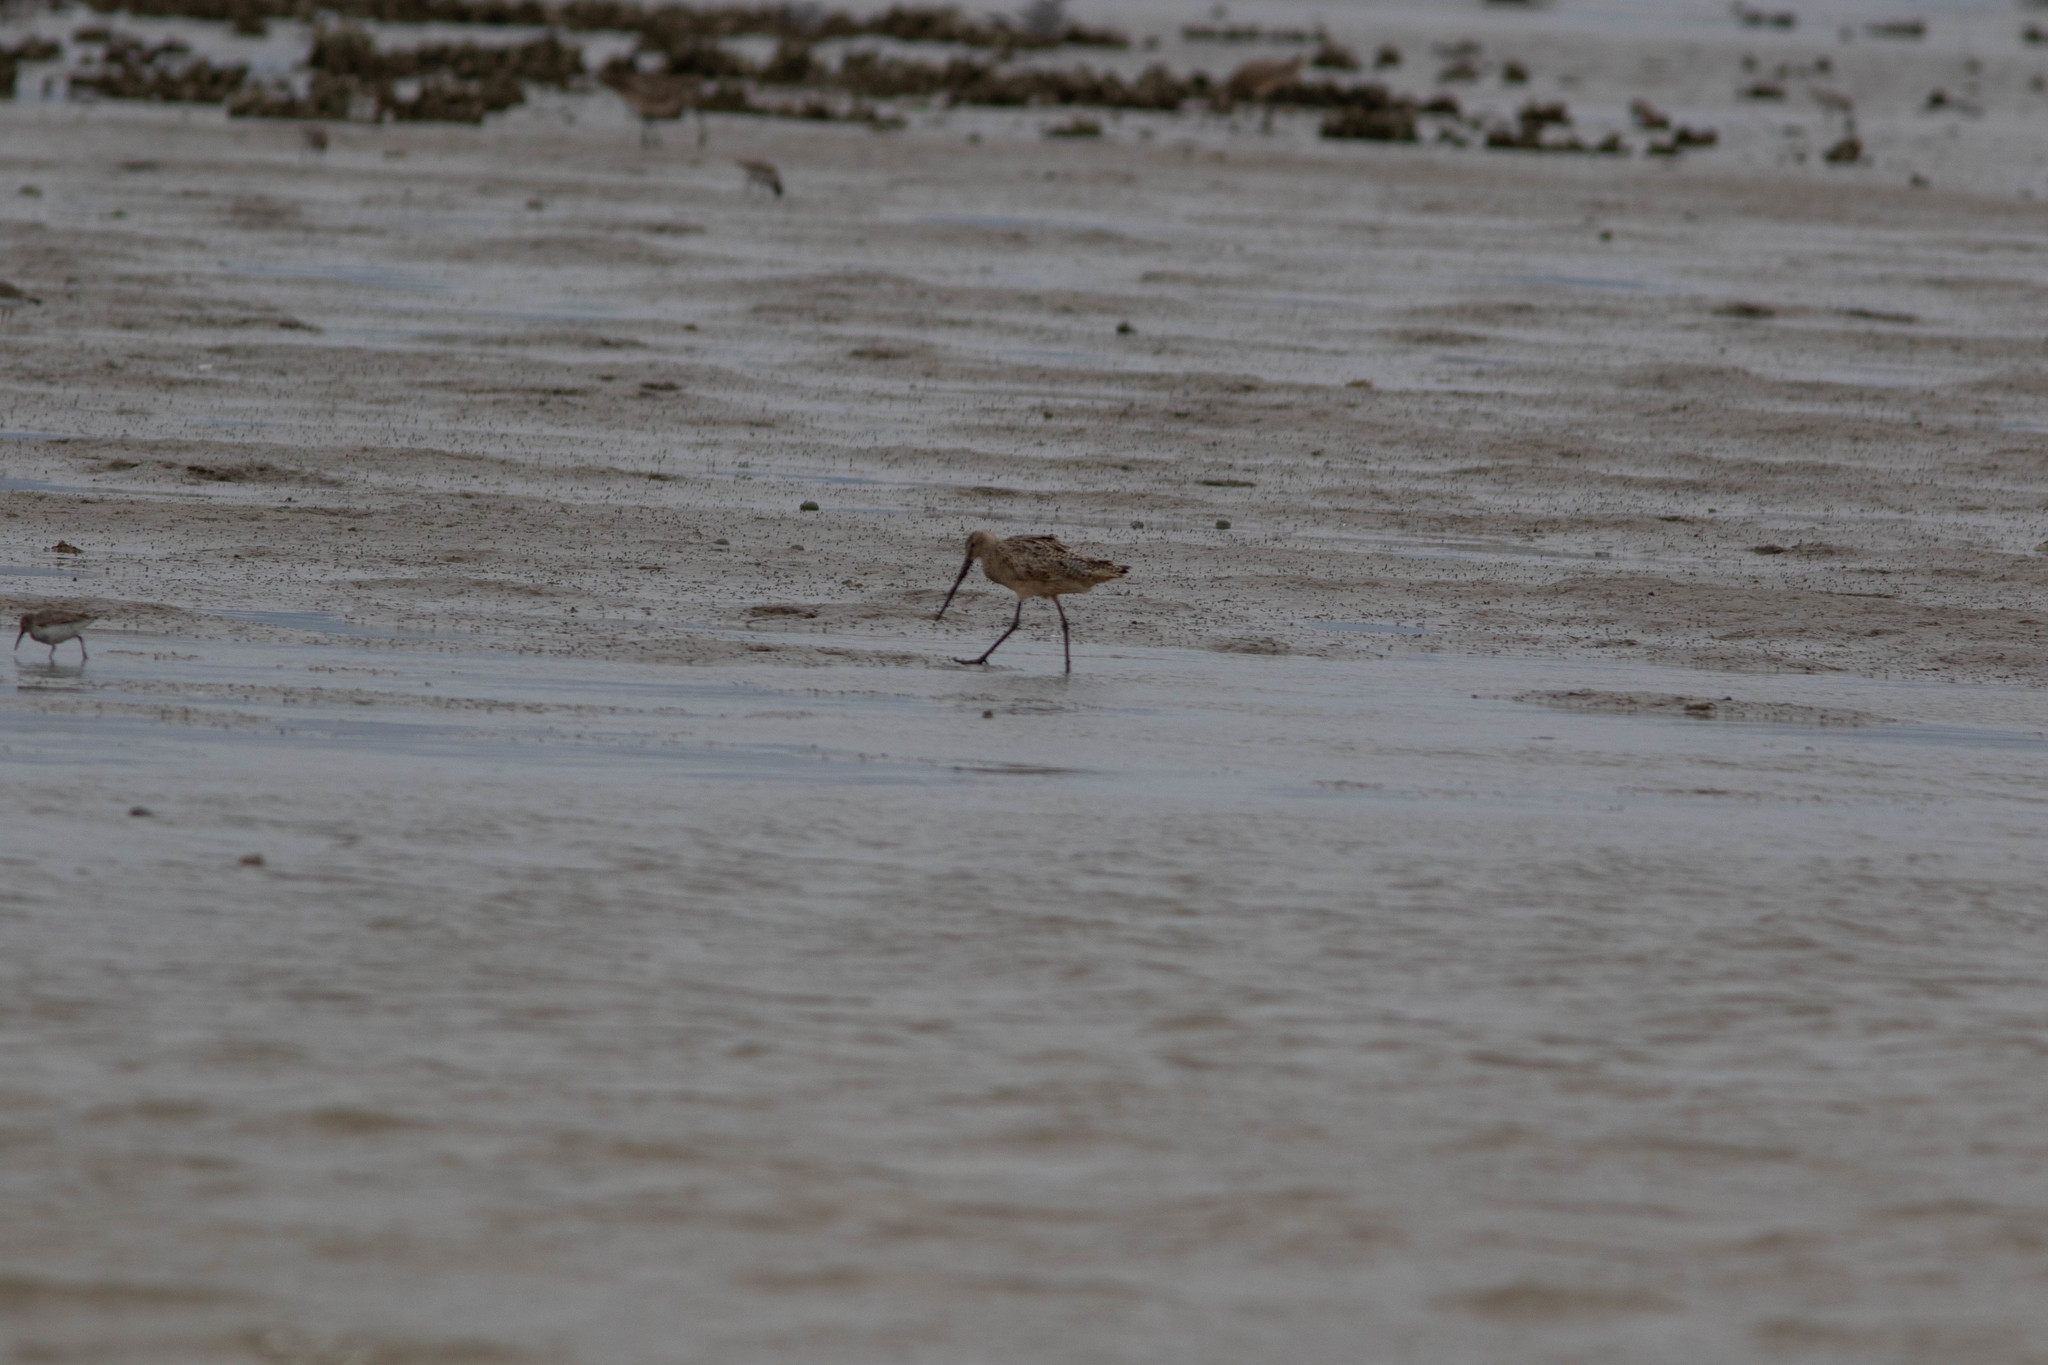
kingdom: Animalia
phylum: Chordata
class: Aves
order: Charadriiformes
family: Scolopacidae
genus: Limosa
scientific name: Limosa fedoa
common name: Marbled godwit
